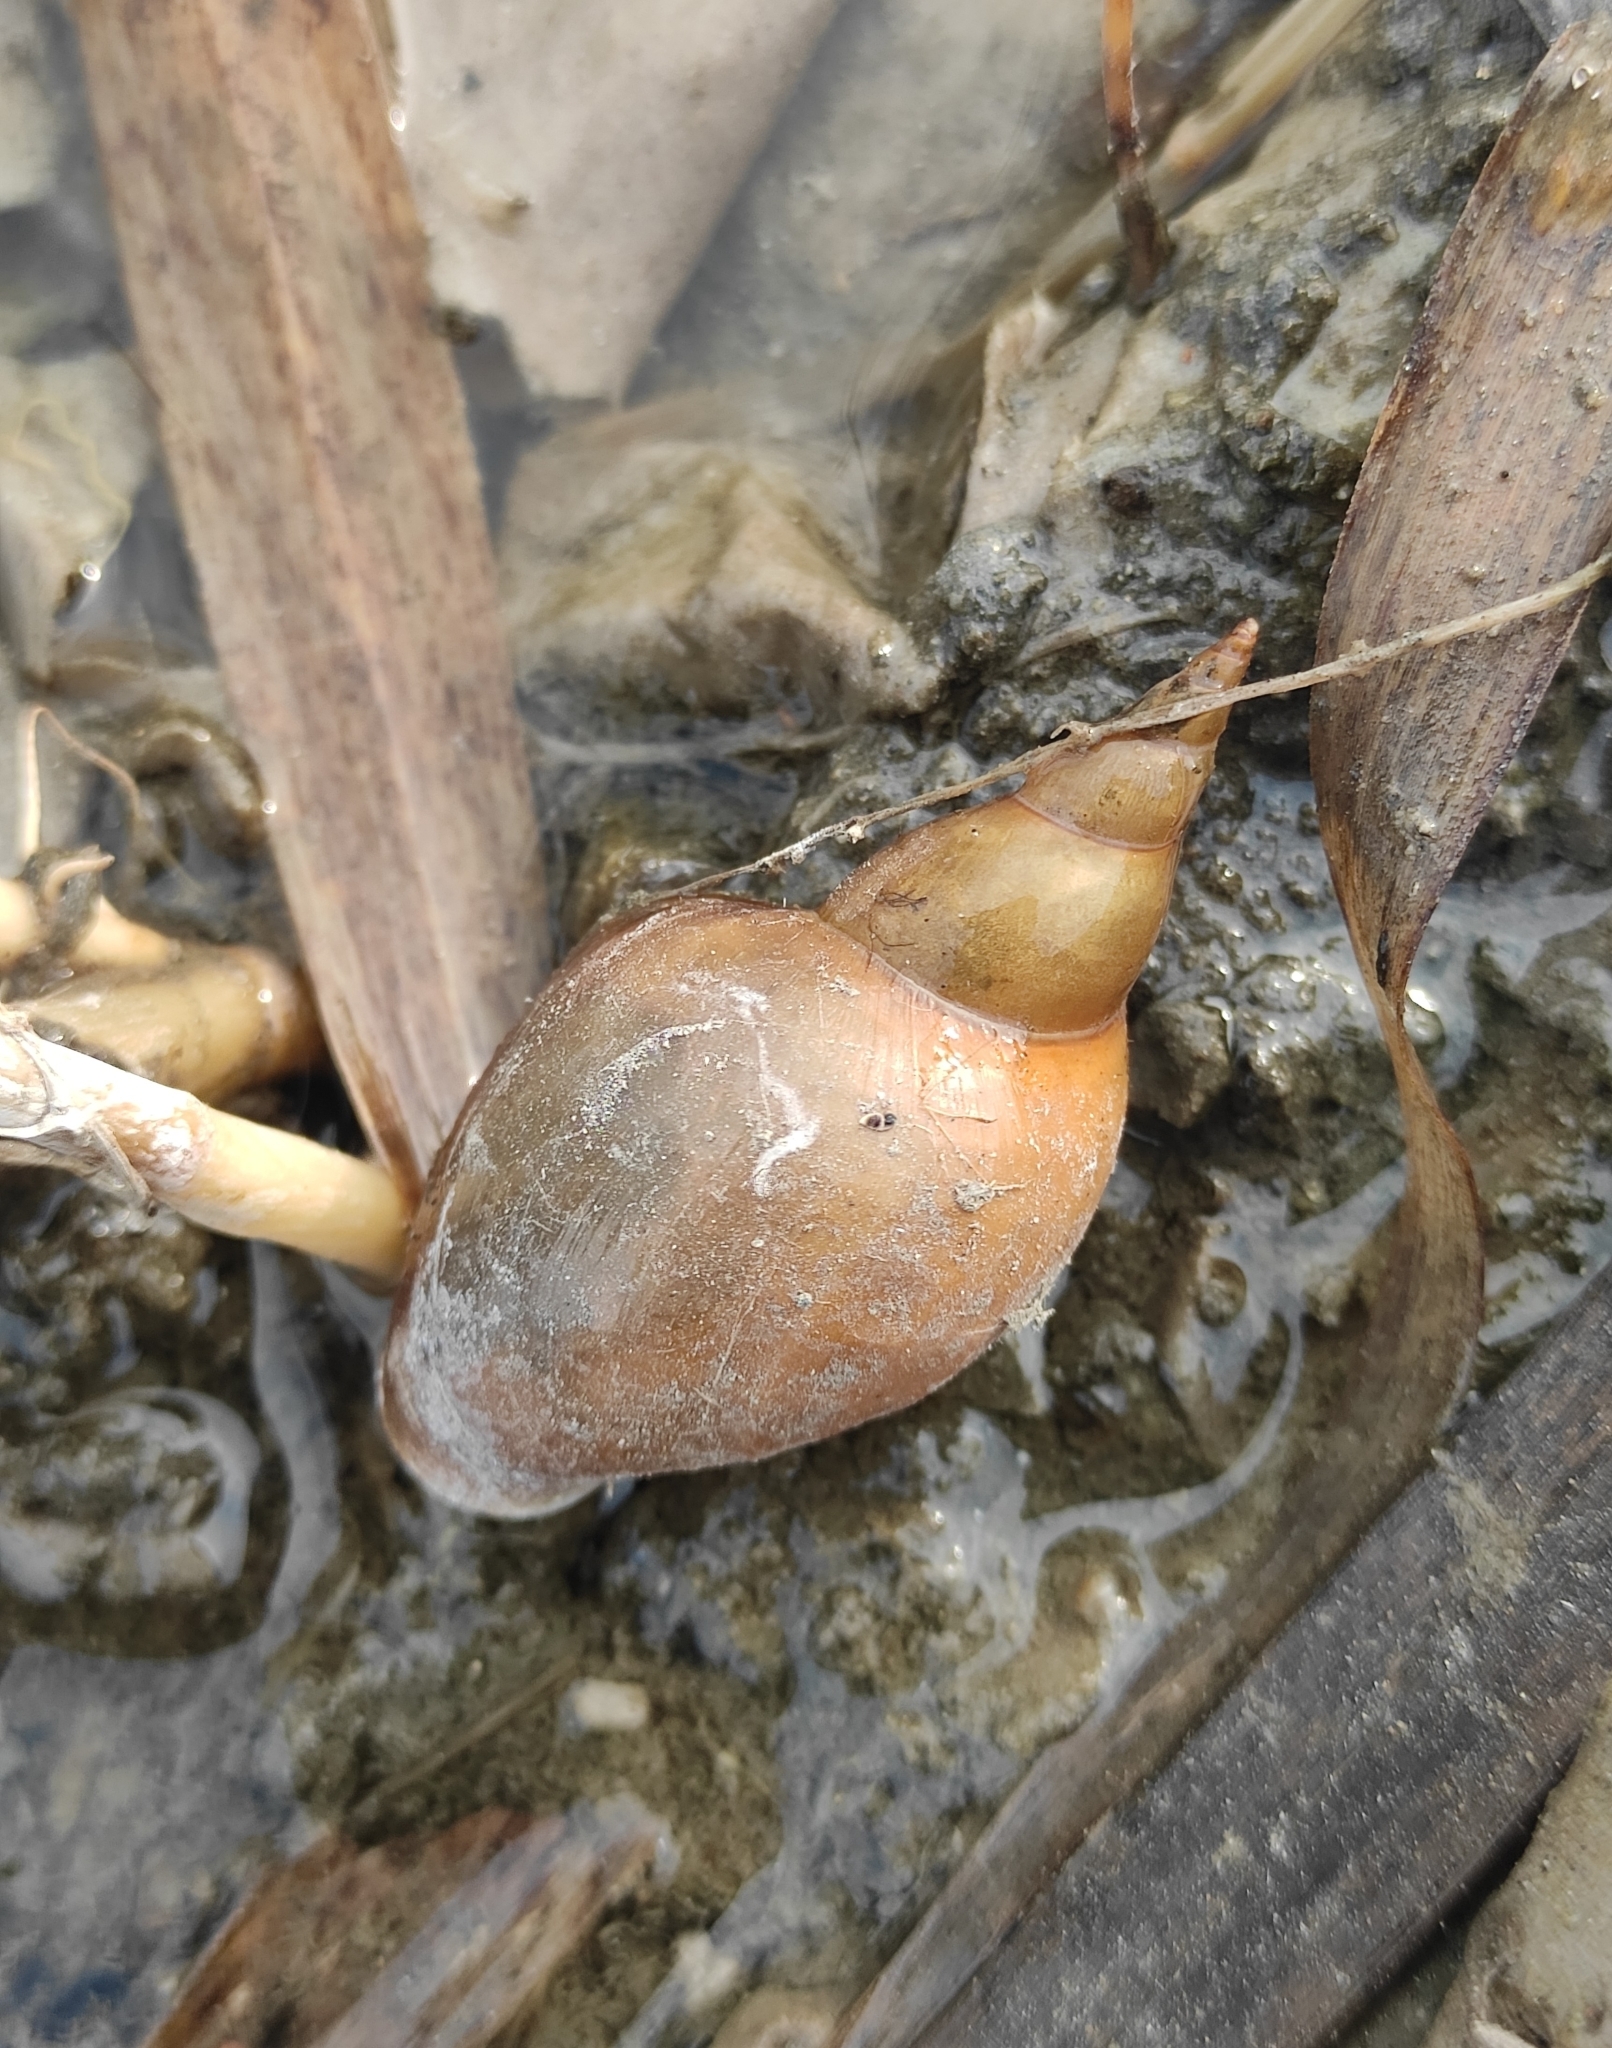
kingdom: Animalia
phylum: Mollusca
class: Gastropoda
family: Lymnaeidae
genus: Lymnaea
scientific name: Lymnaea stagnalis
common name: Great pond snail
